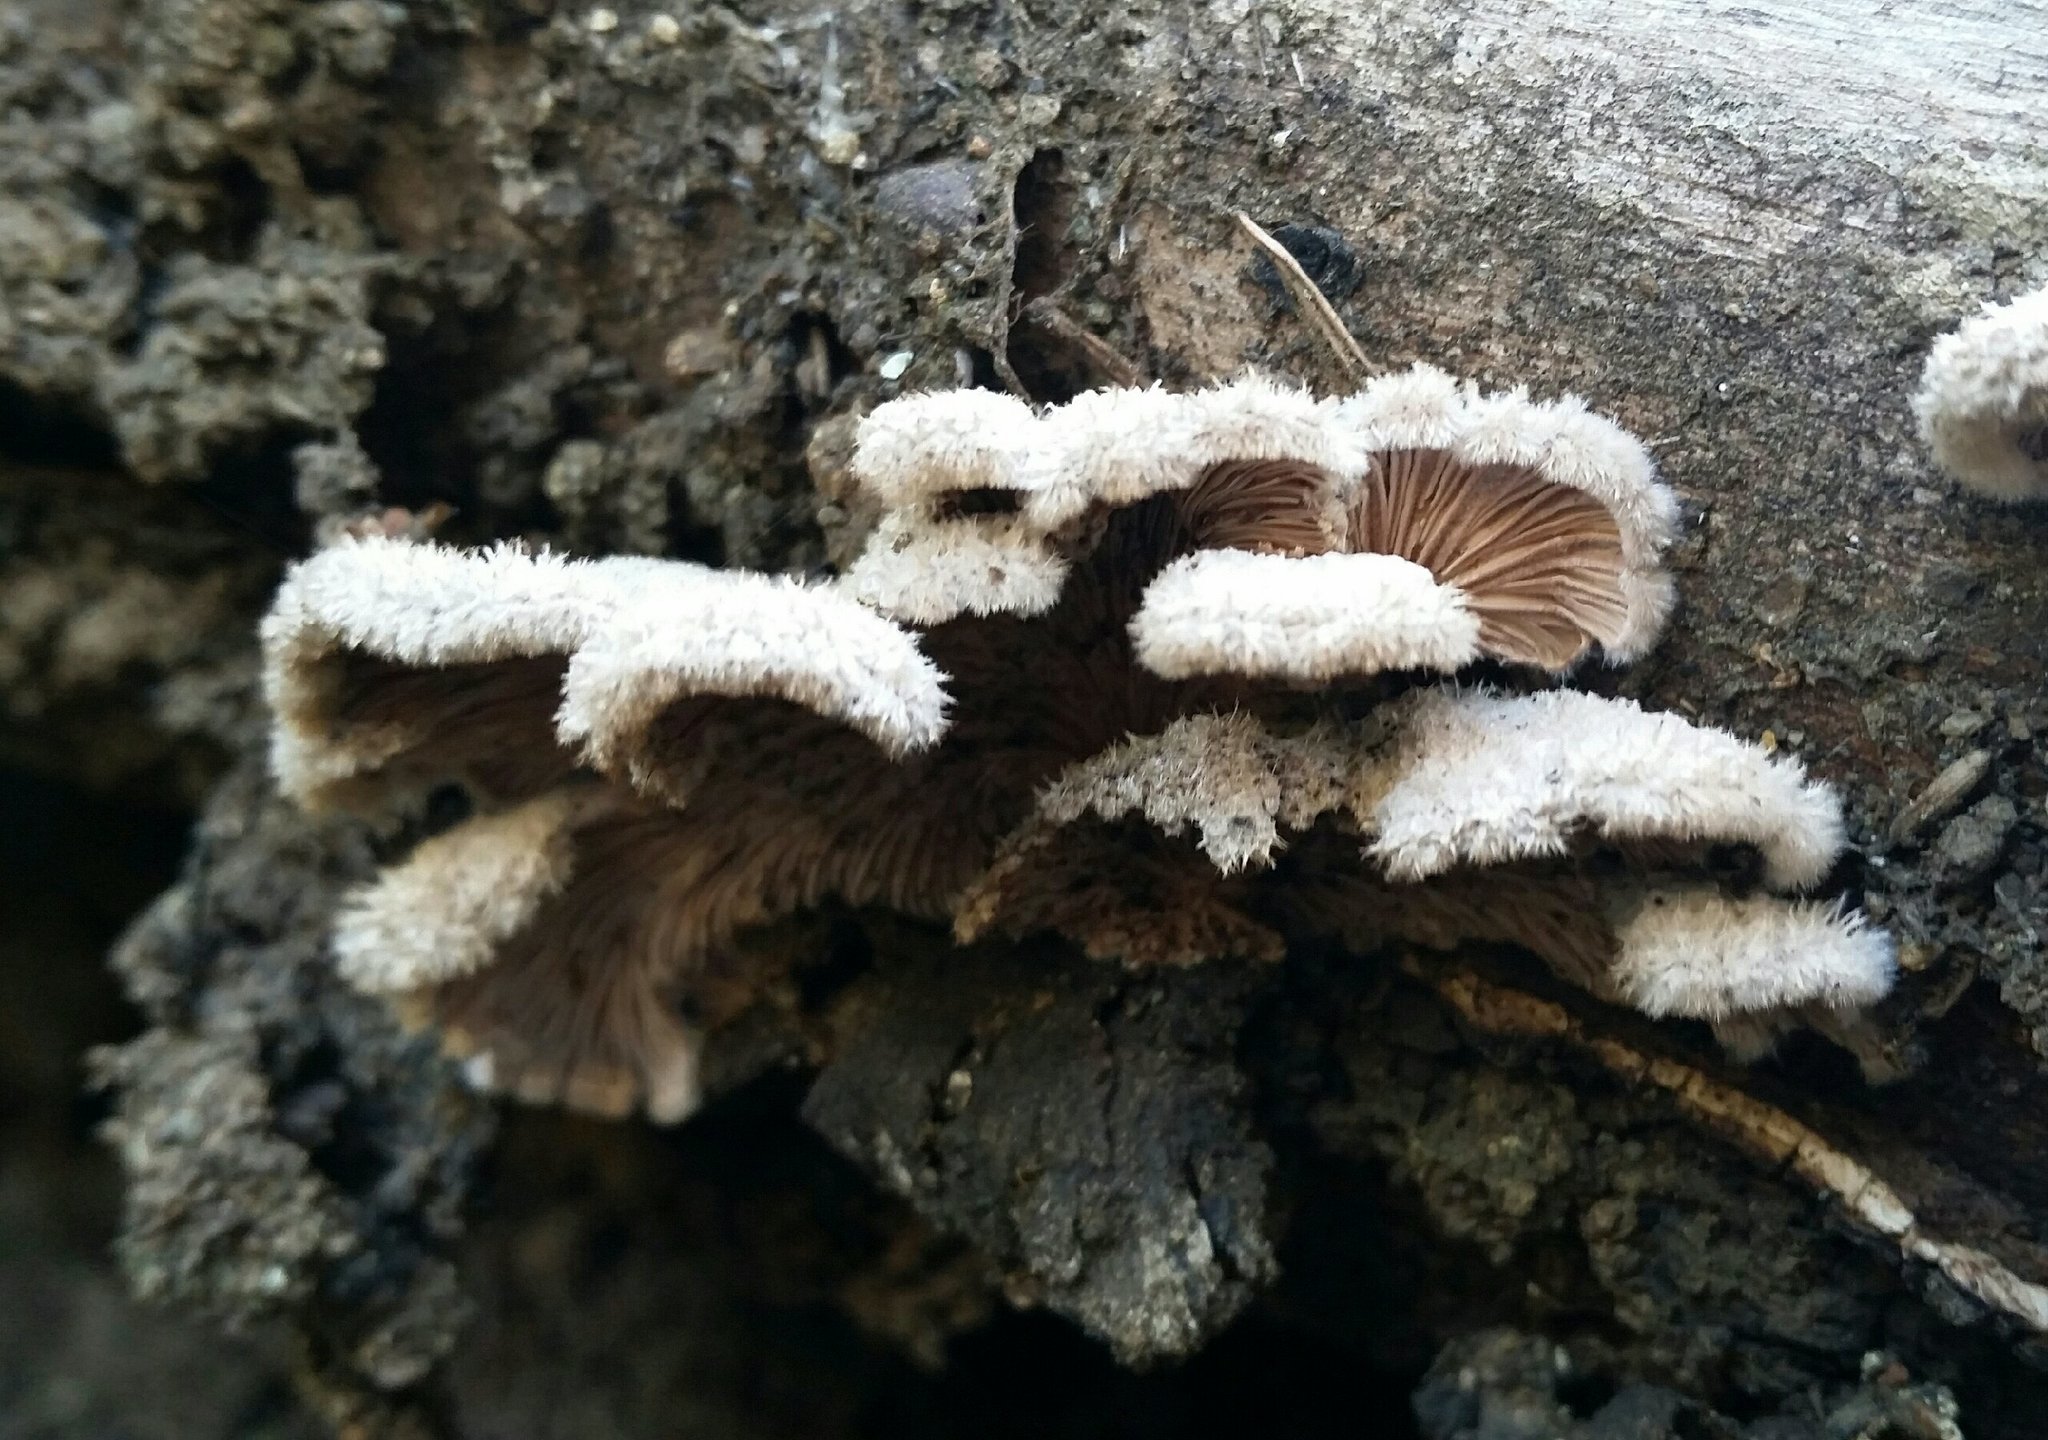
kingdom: Fungi
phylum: Basidiomycota
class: Agaricomycetes
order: Agaricales
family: Schizophyllaceae
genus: Schizophyllum
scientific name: Schizophyllum commune
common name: Common porecrust
